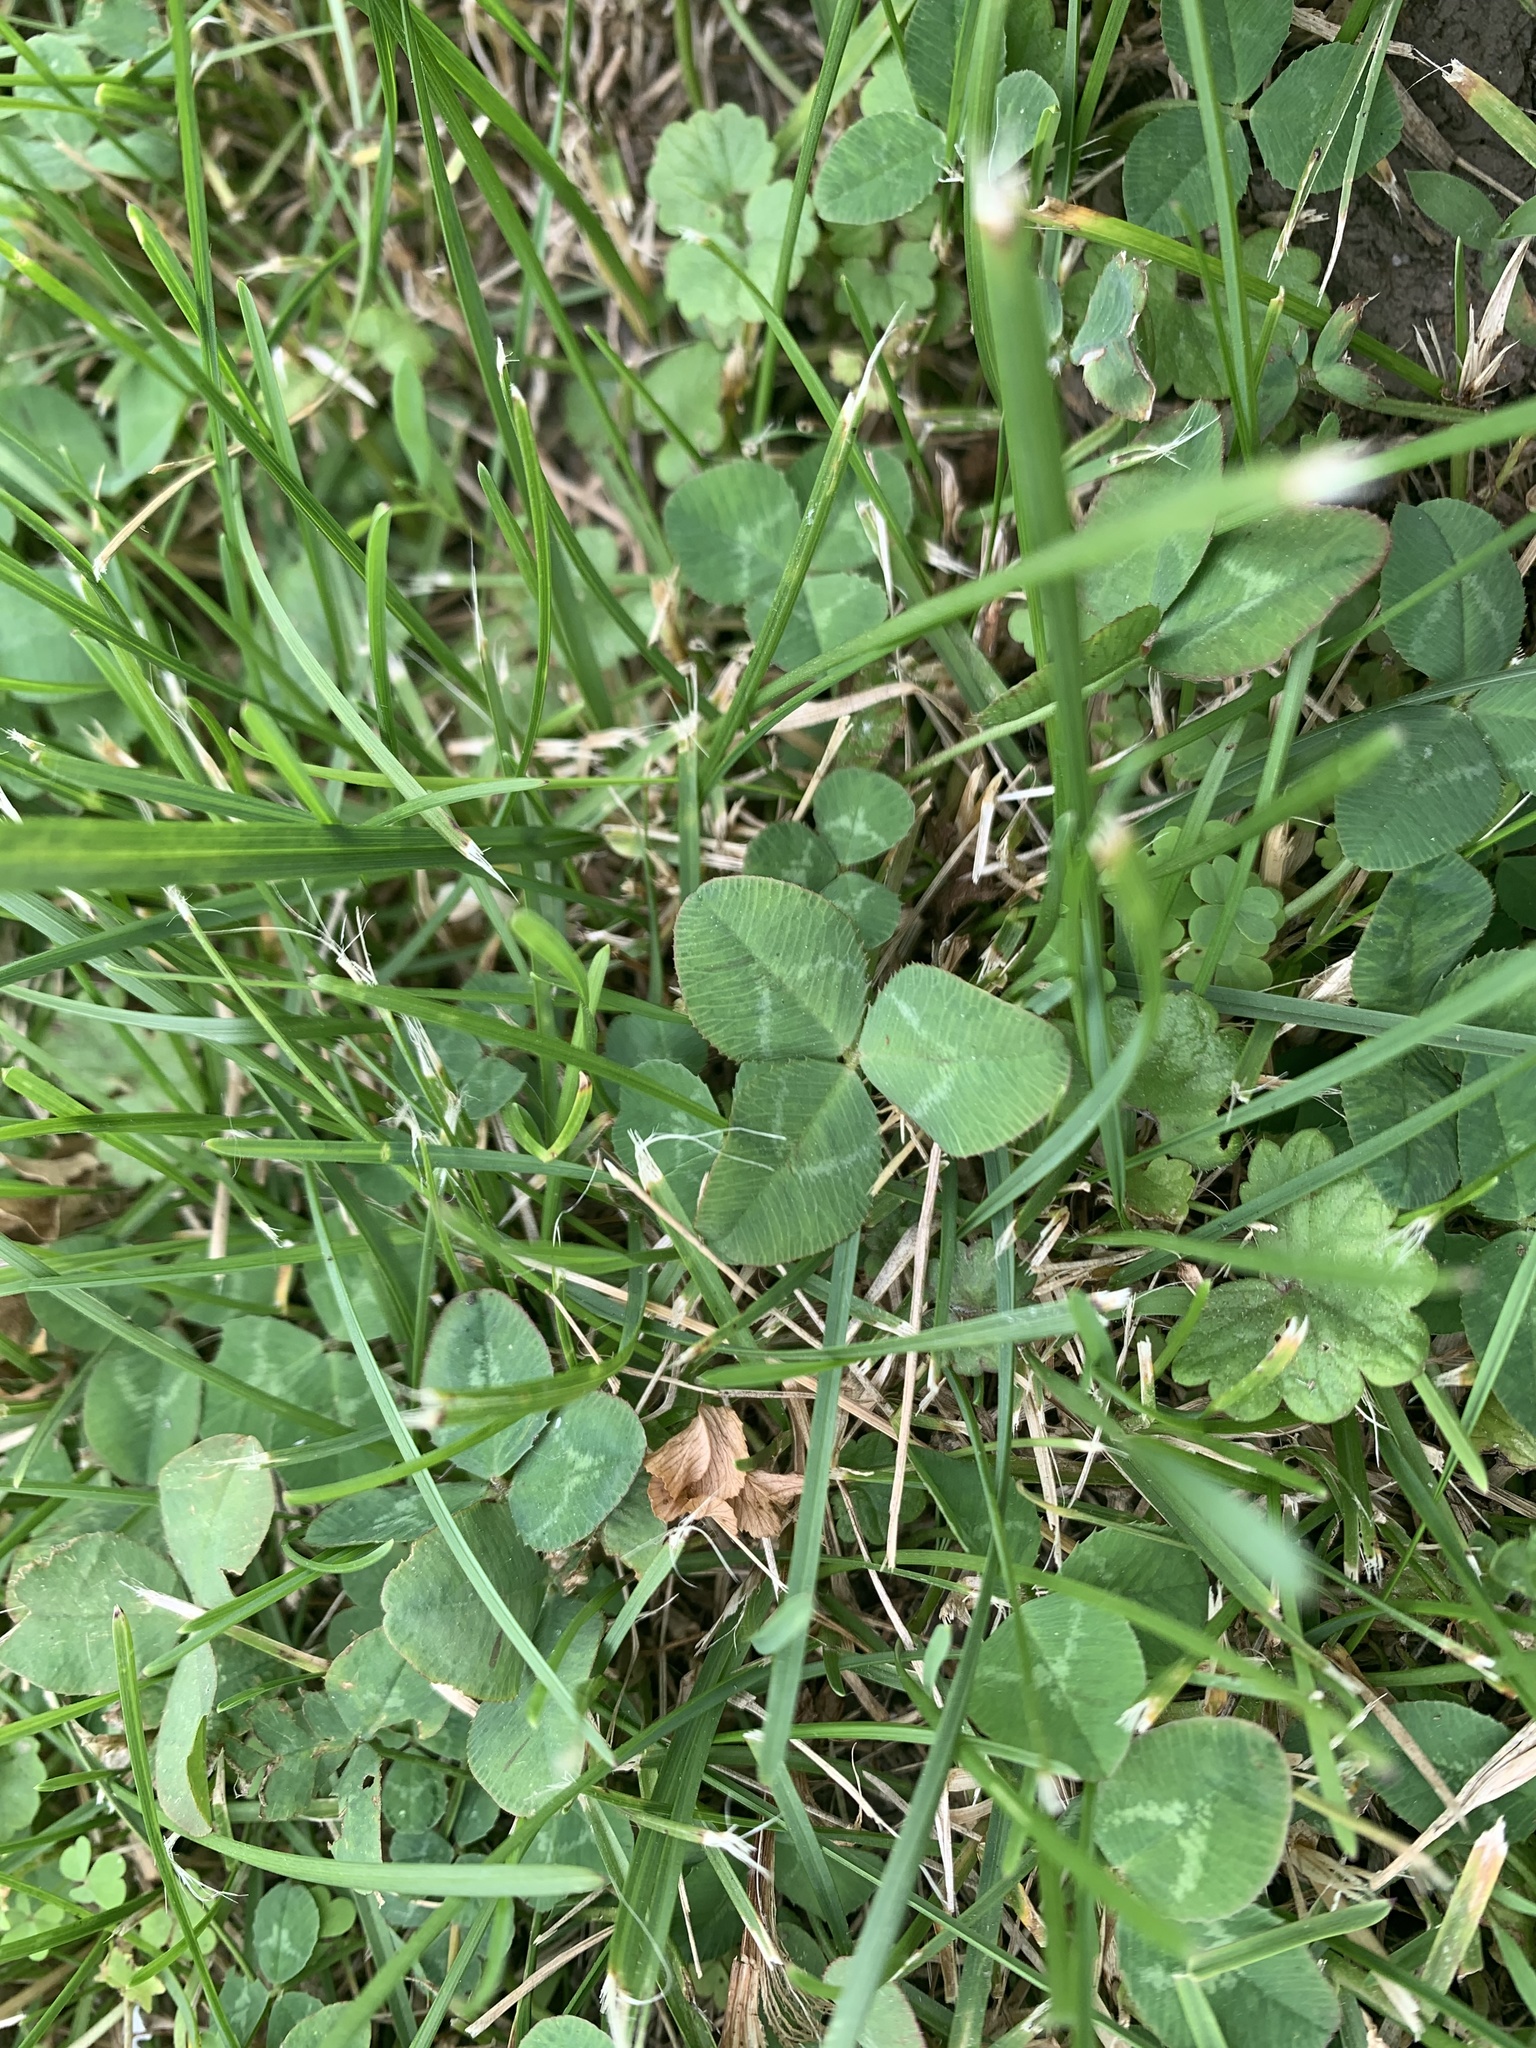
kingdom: Plantae
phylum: Tracheophyta
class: Magnoliopsida
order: Fabales
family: Fabaceae
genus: Trifolium
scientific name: Trifolium repens
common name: White clover
